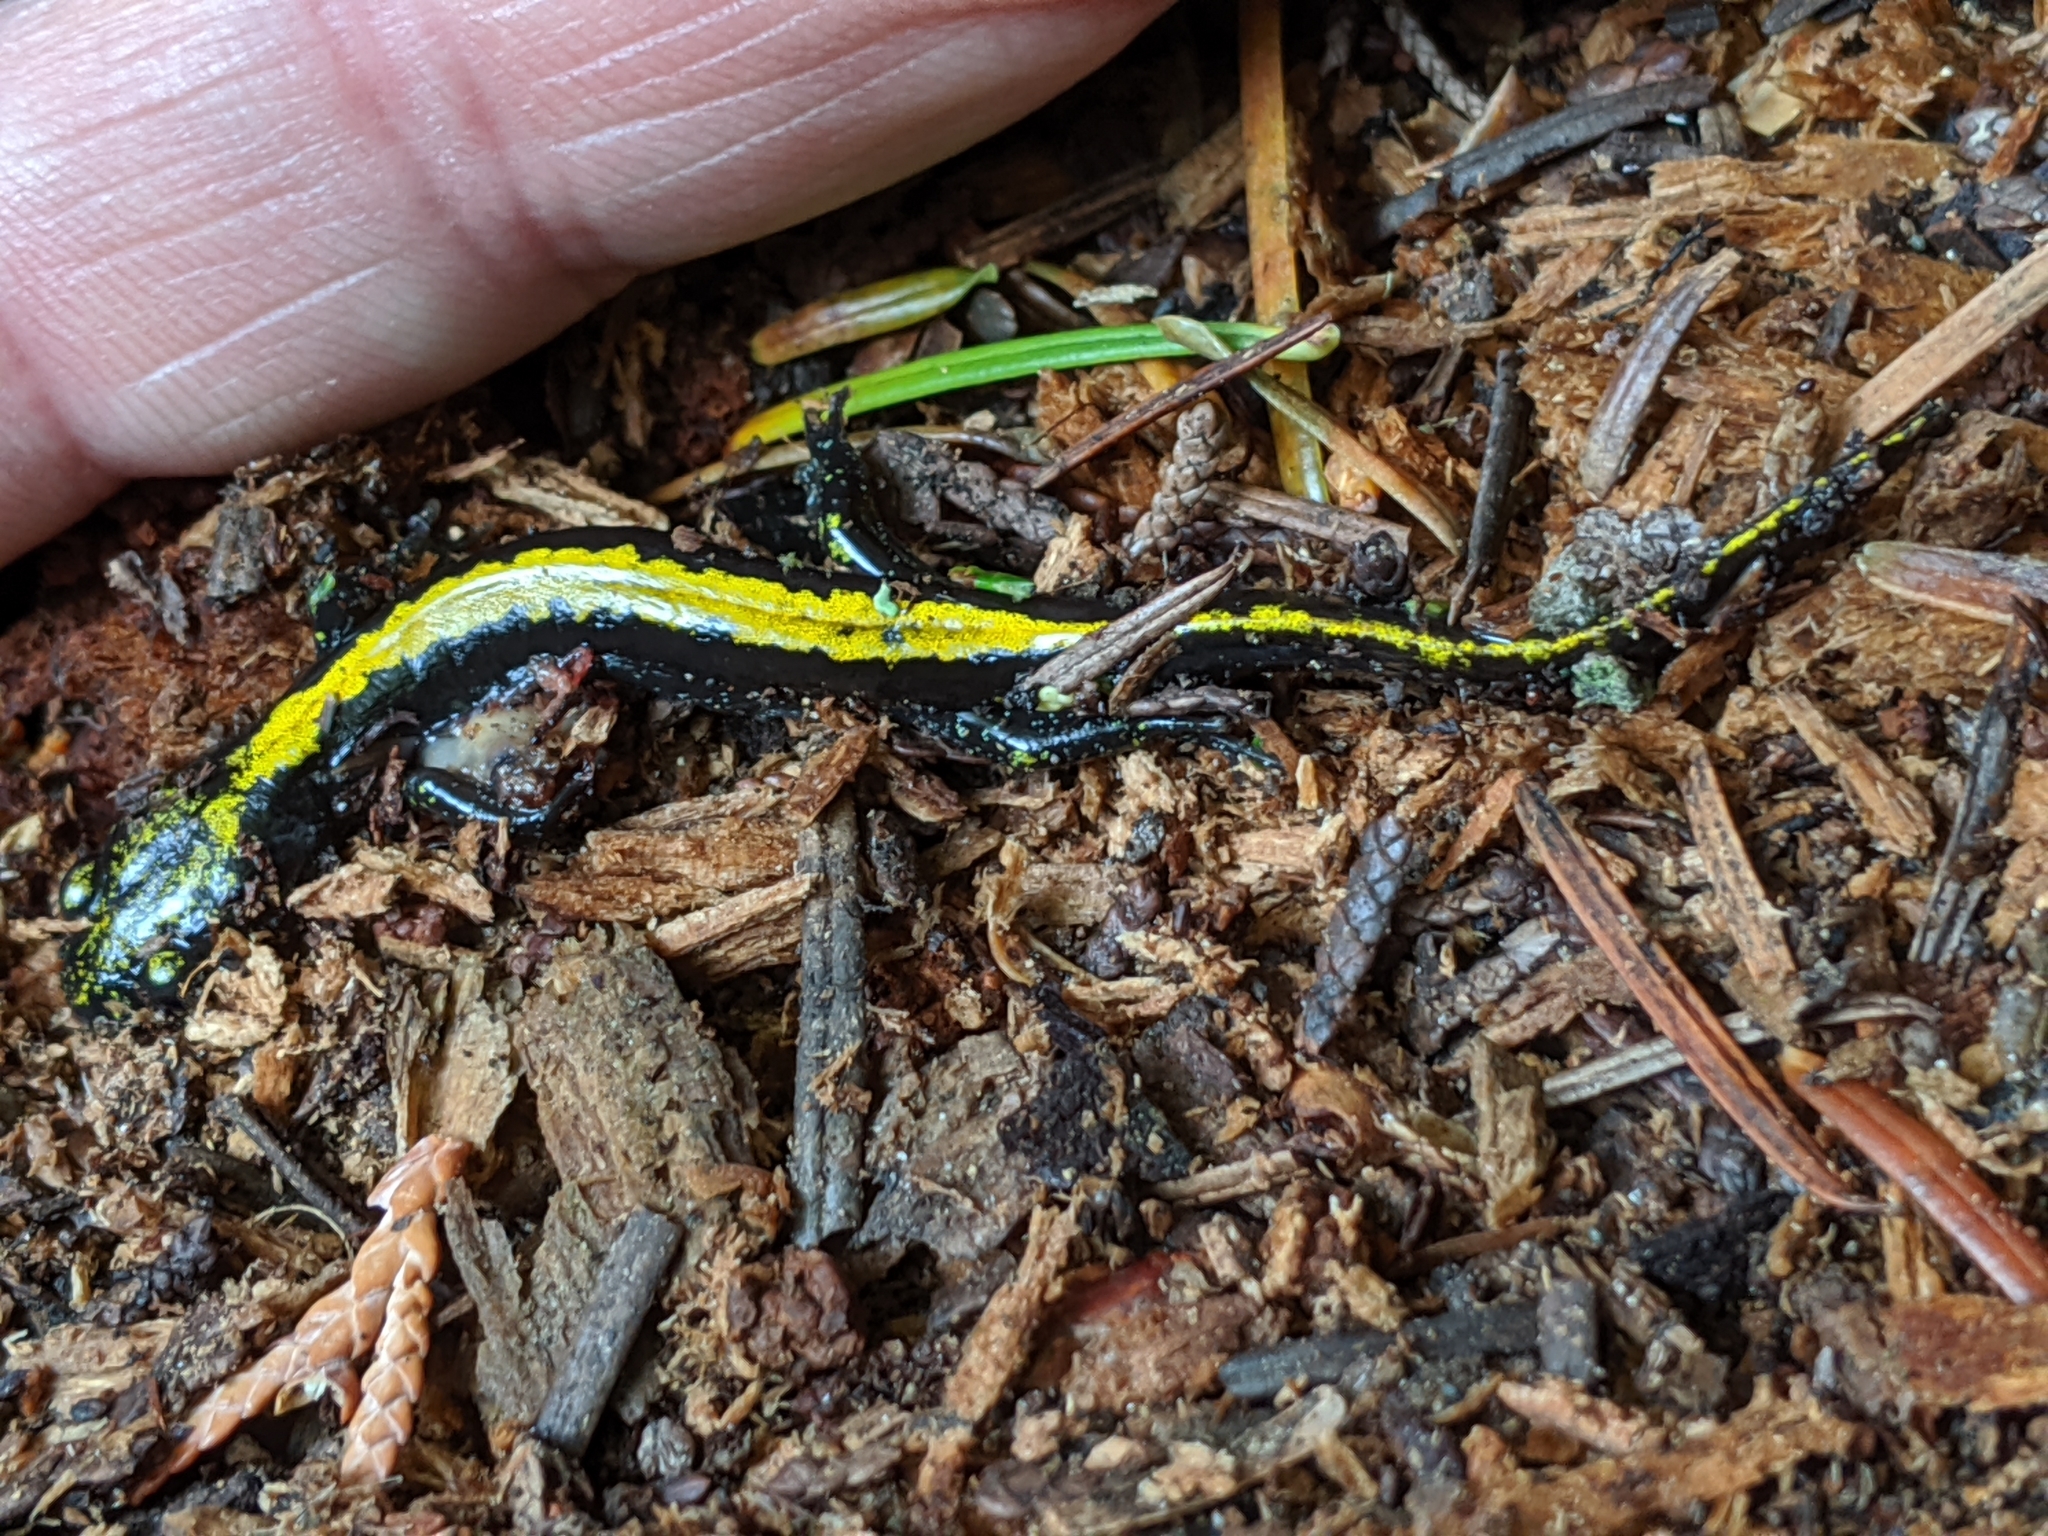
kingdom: Animalia
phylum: Chordata
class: Amphibia
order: Caudata
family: Ambystomatidae
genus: Ambystoma
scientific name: Ambystoma macrodactylum
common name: Long-toed salamander
